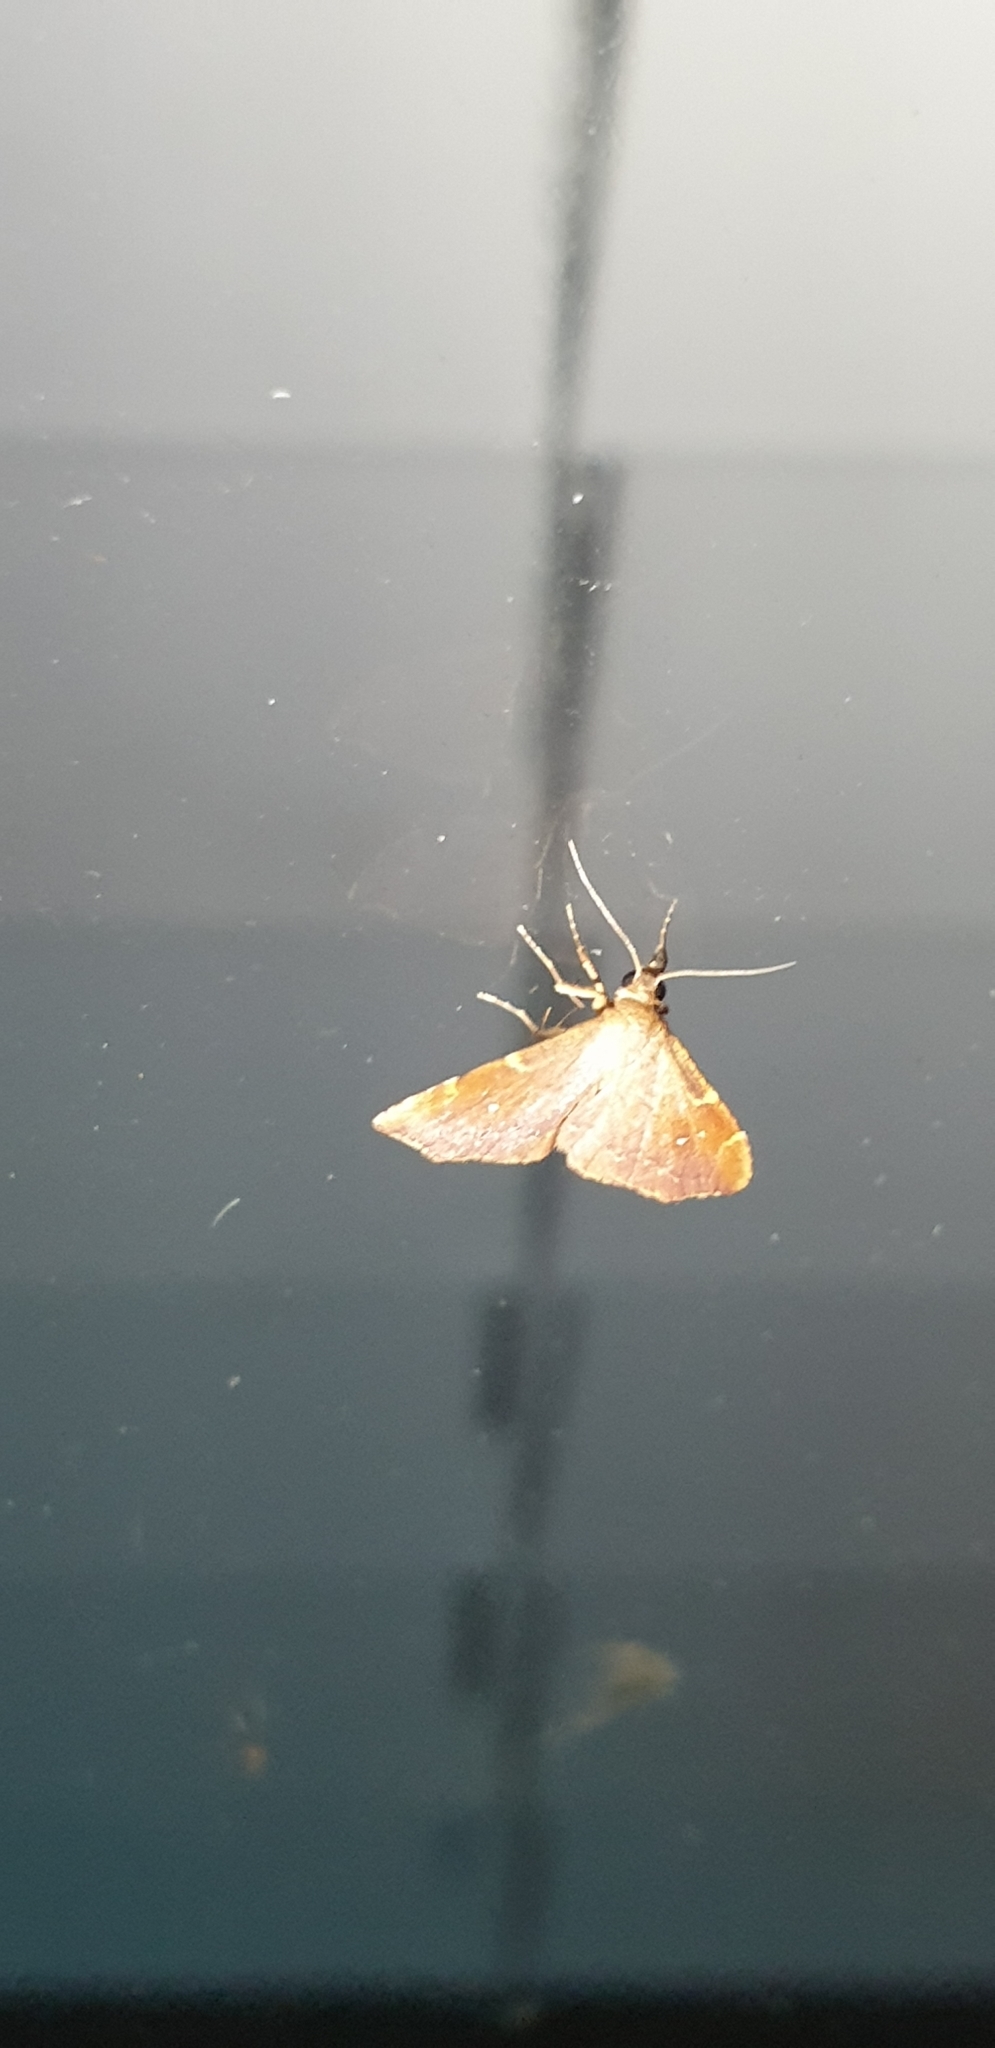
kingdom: Animalia
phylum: Arthropoda
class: Insecta
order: Lepidoptera
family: Noctuidae
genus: Heterorta
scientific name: Heterorta plutonis
